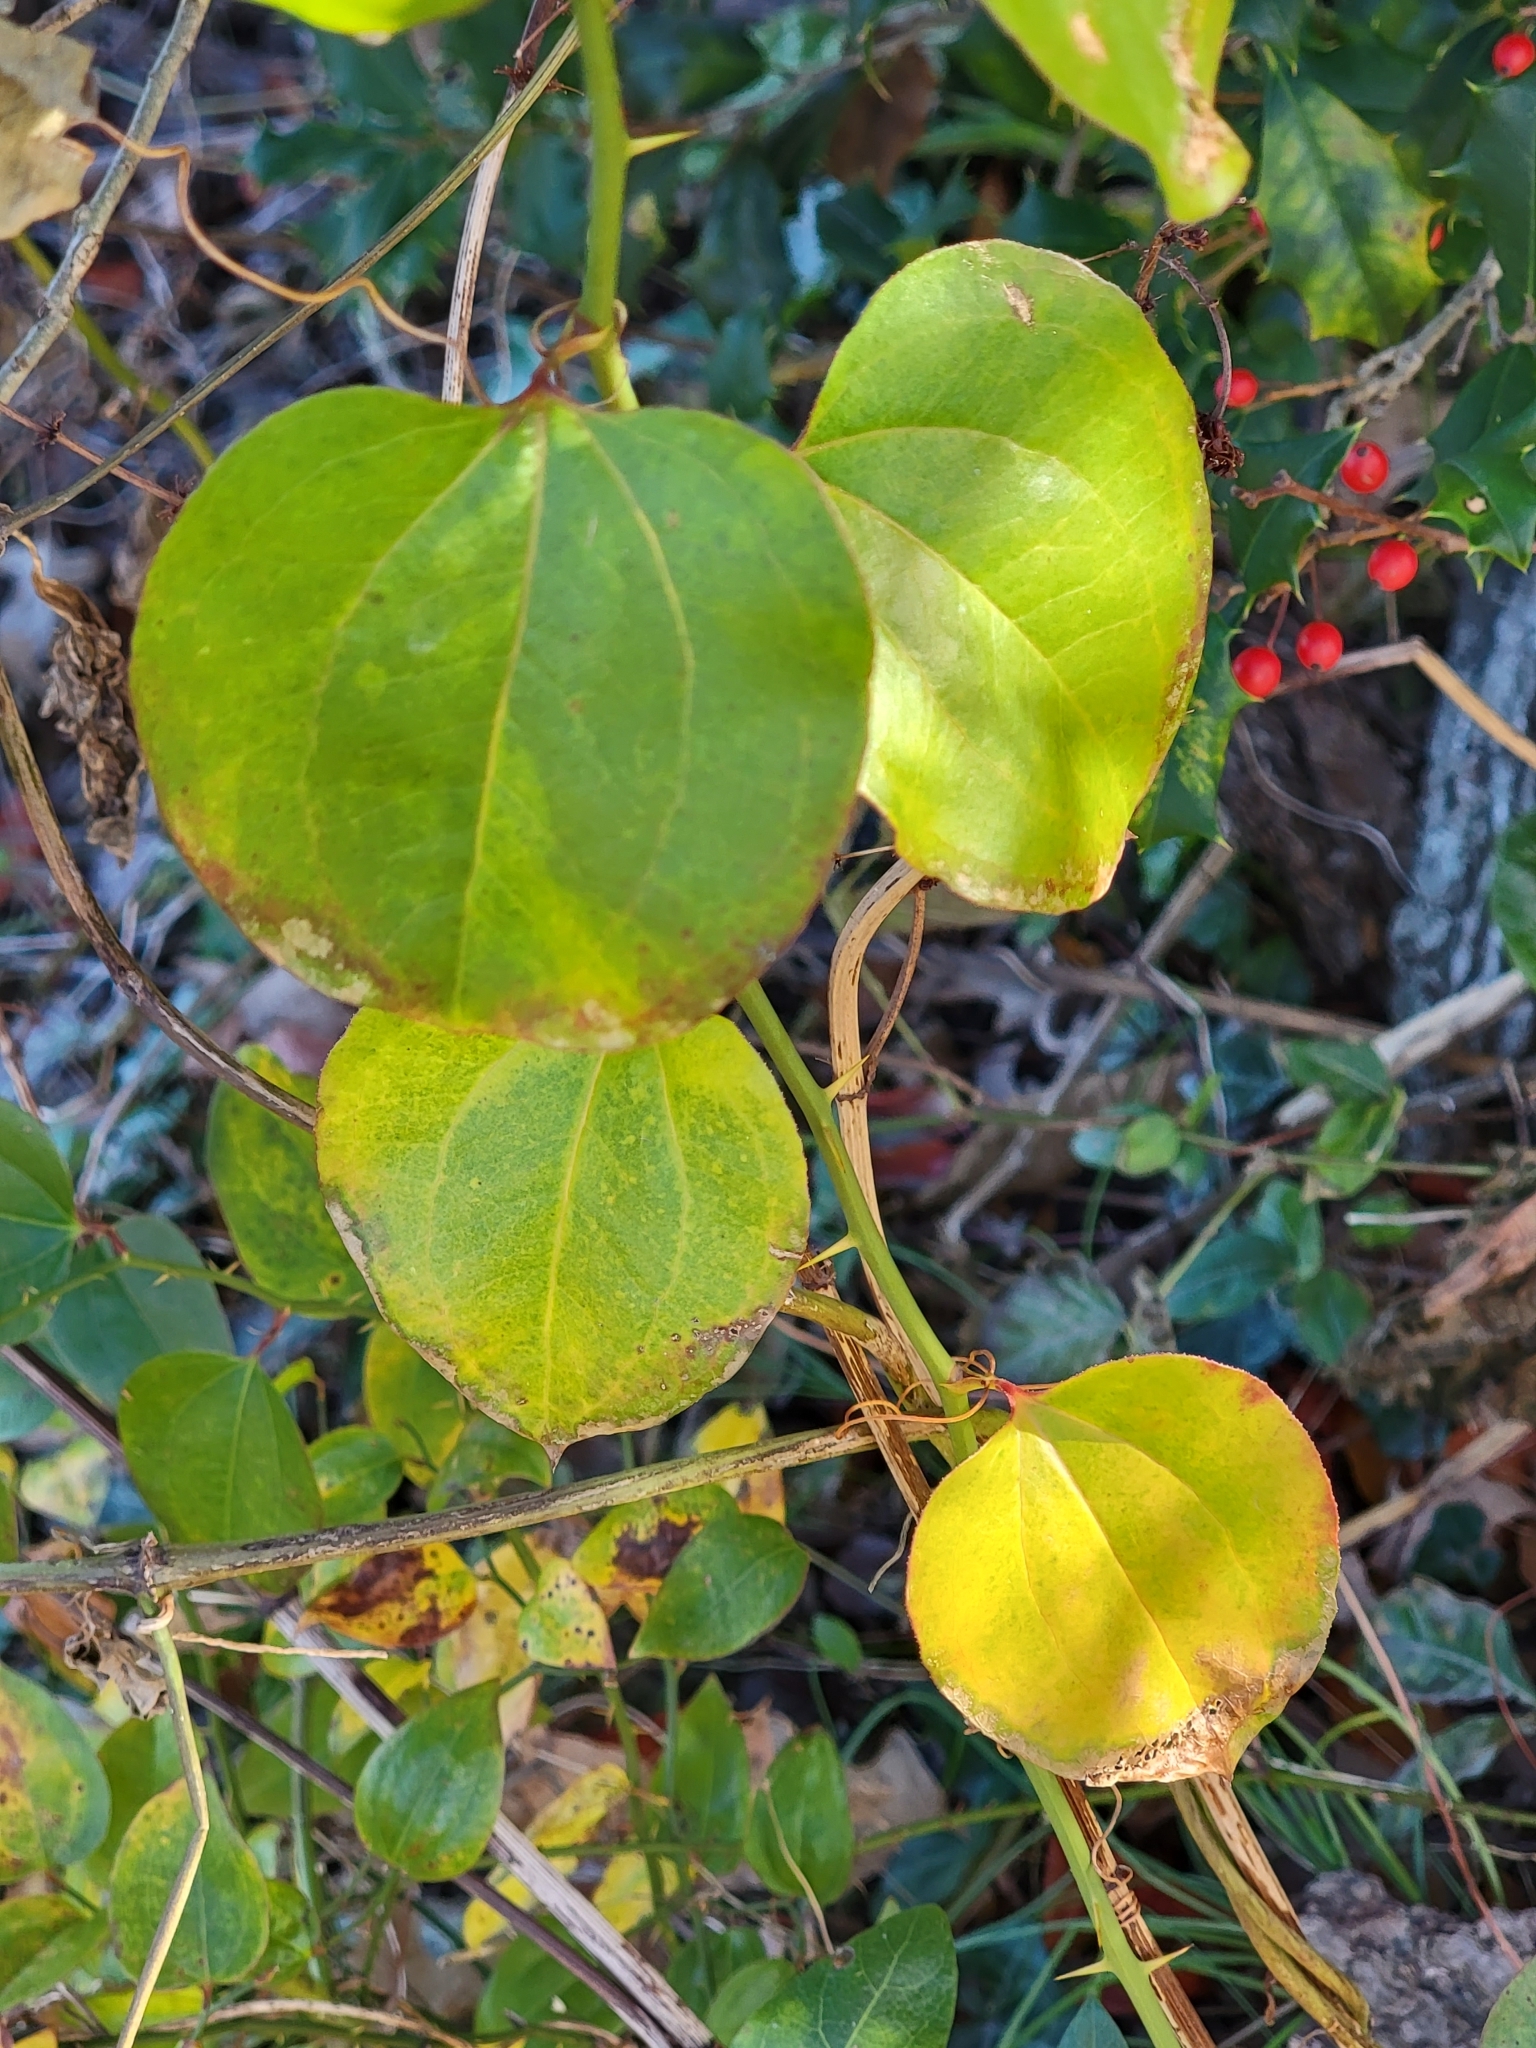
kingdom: Plantae
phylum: Tracheophyta
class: Liliopsida
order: Liliales
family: Smilacaceae
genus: Smilax
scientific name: Smilax rotundifolia
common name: Bullbriar
